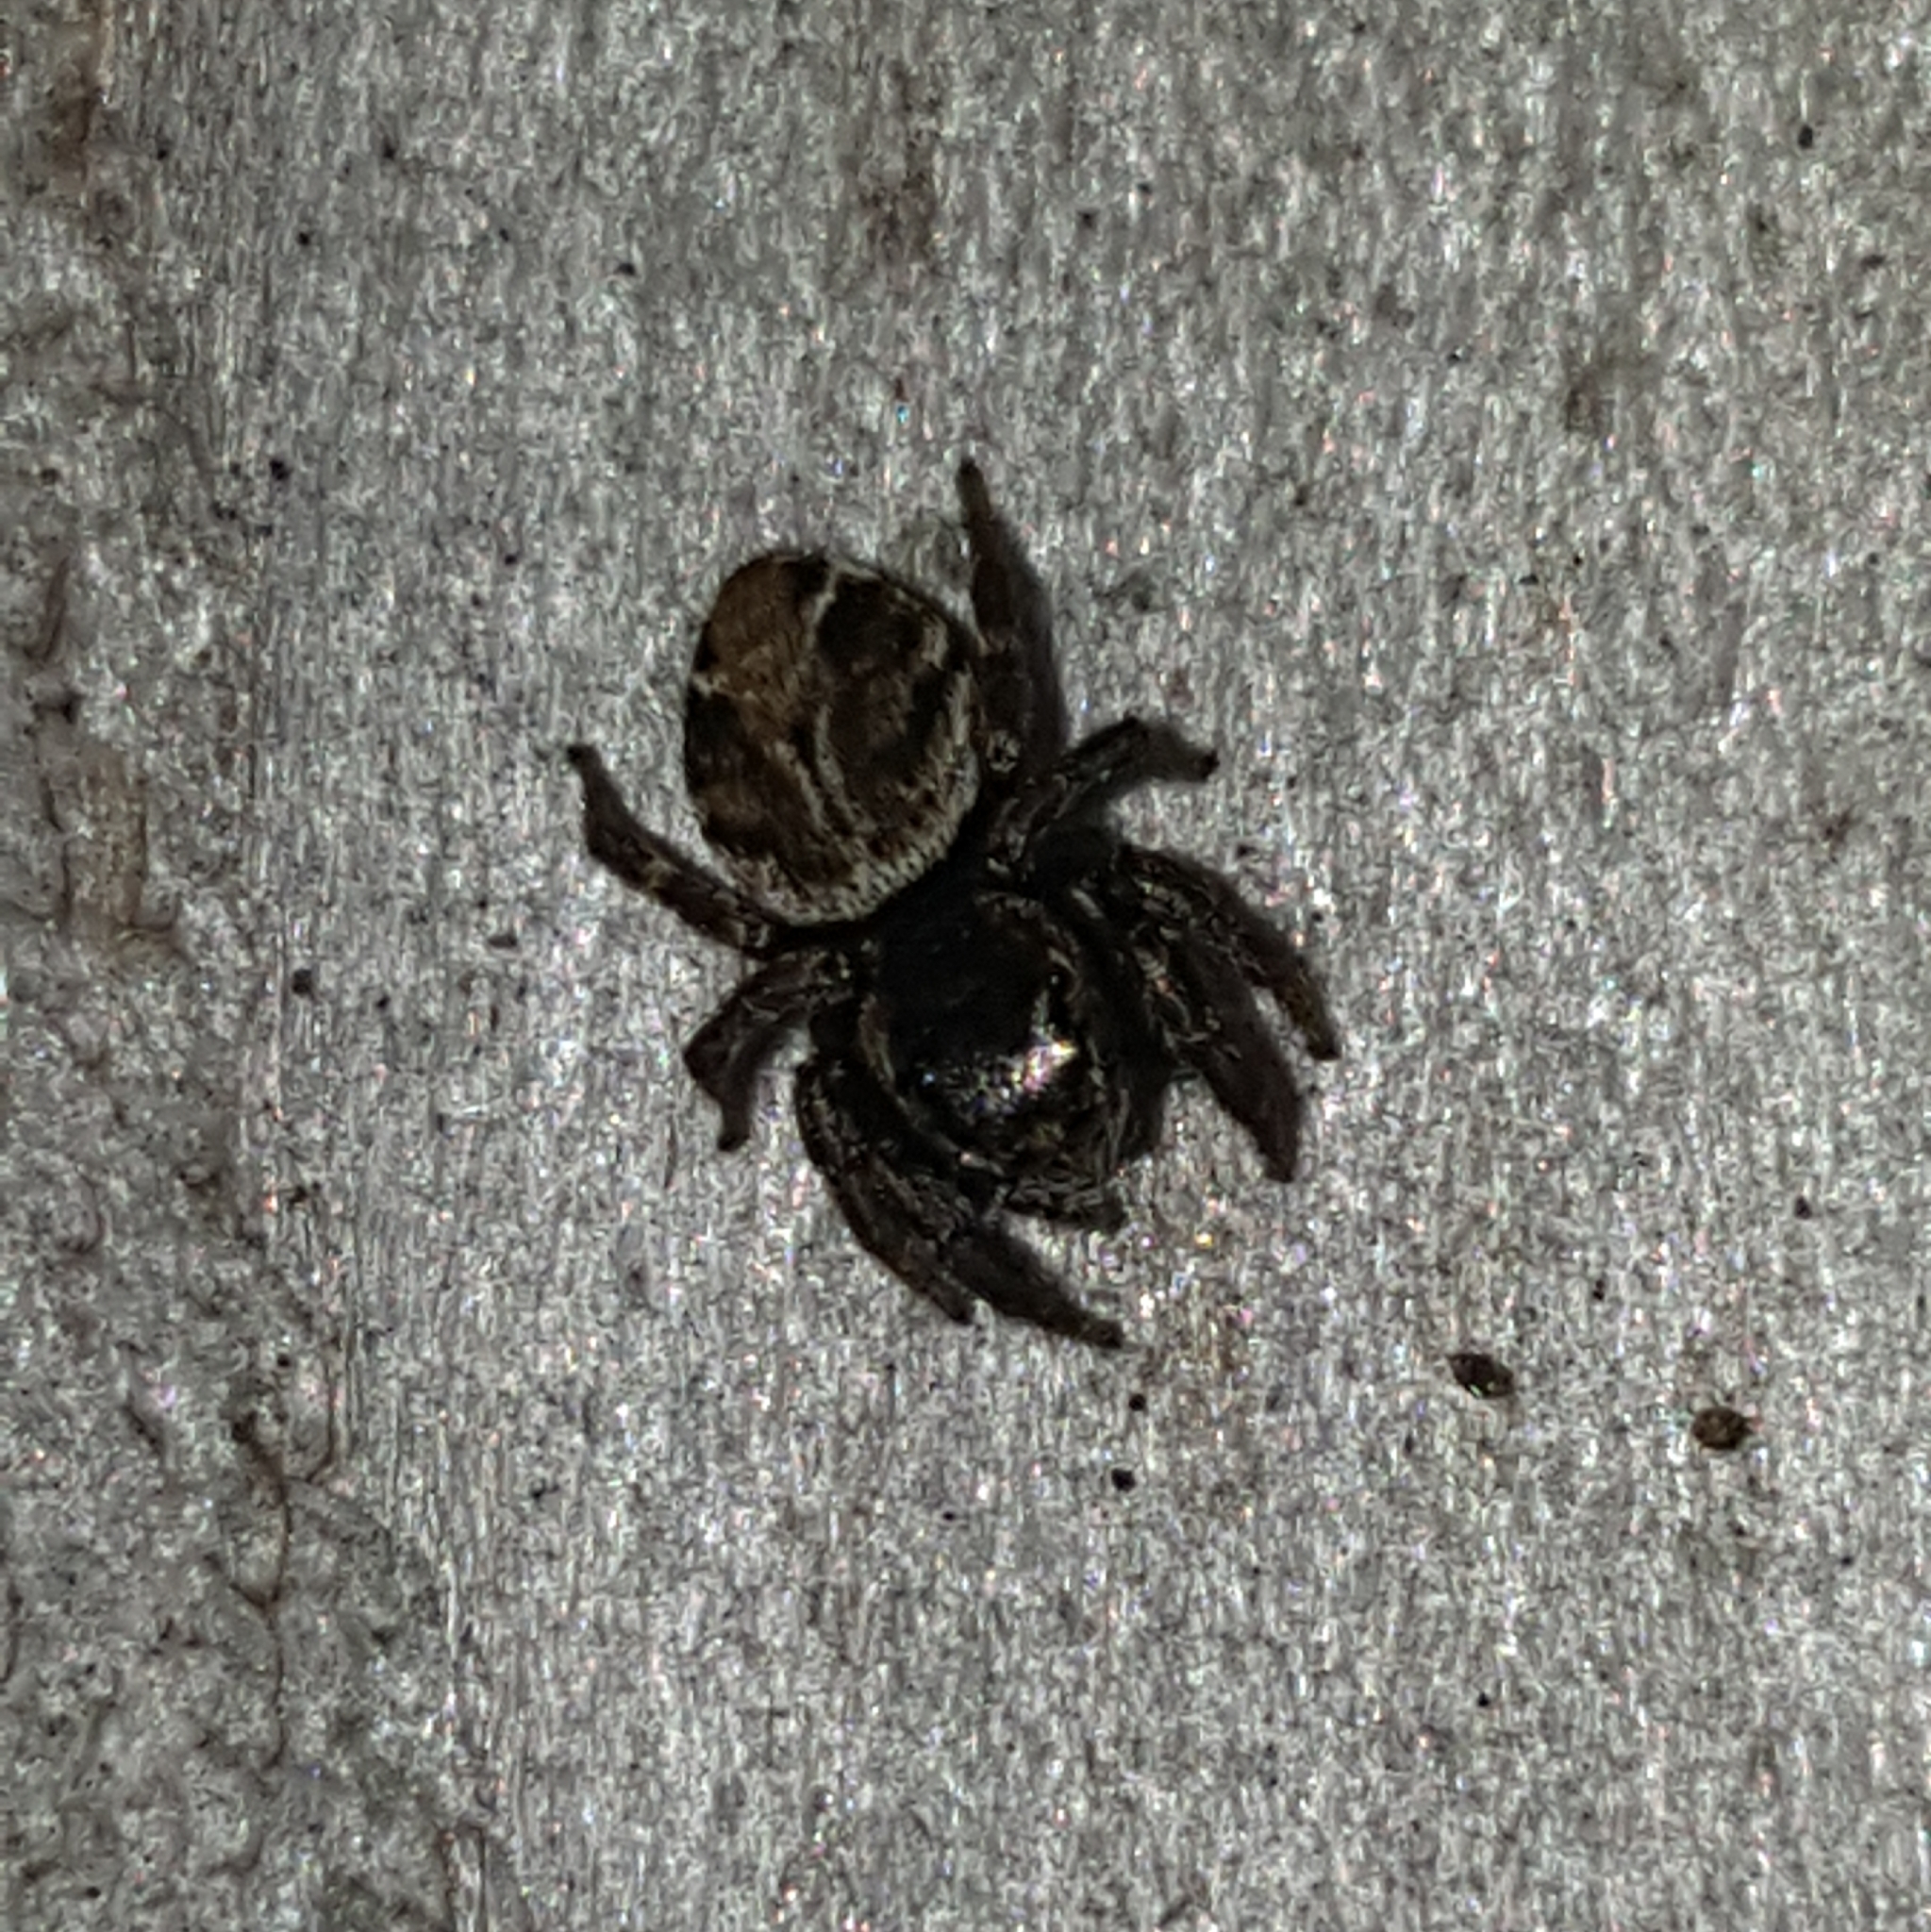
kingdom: Animalia
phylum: Arthropoda
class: Arachnida
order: Araneae
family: Salticidae
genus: Evarcha
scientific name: Evarcha proszynskii
